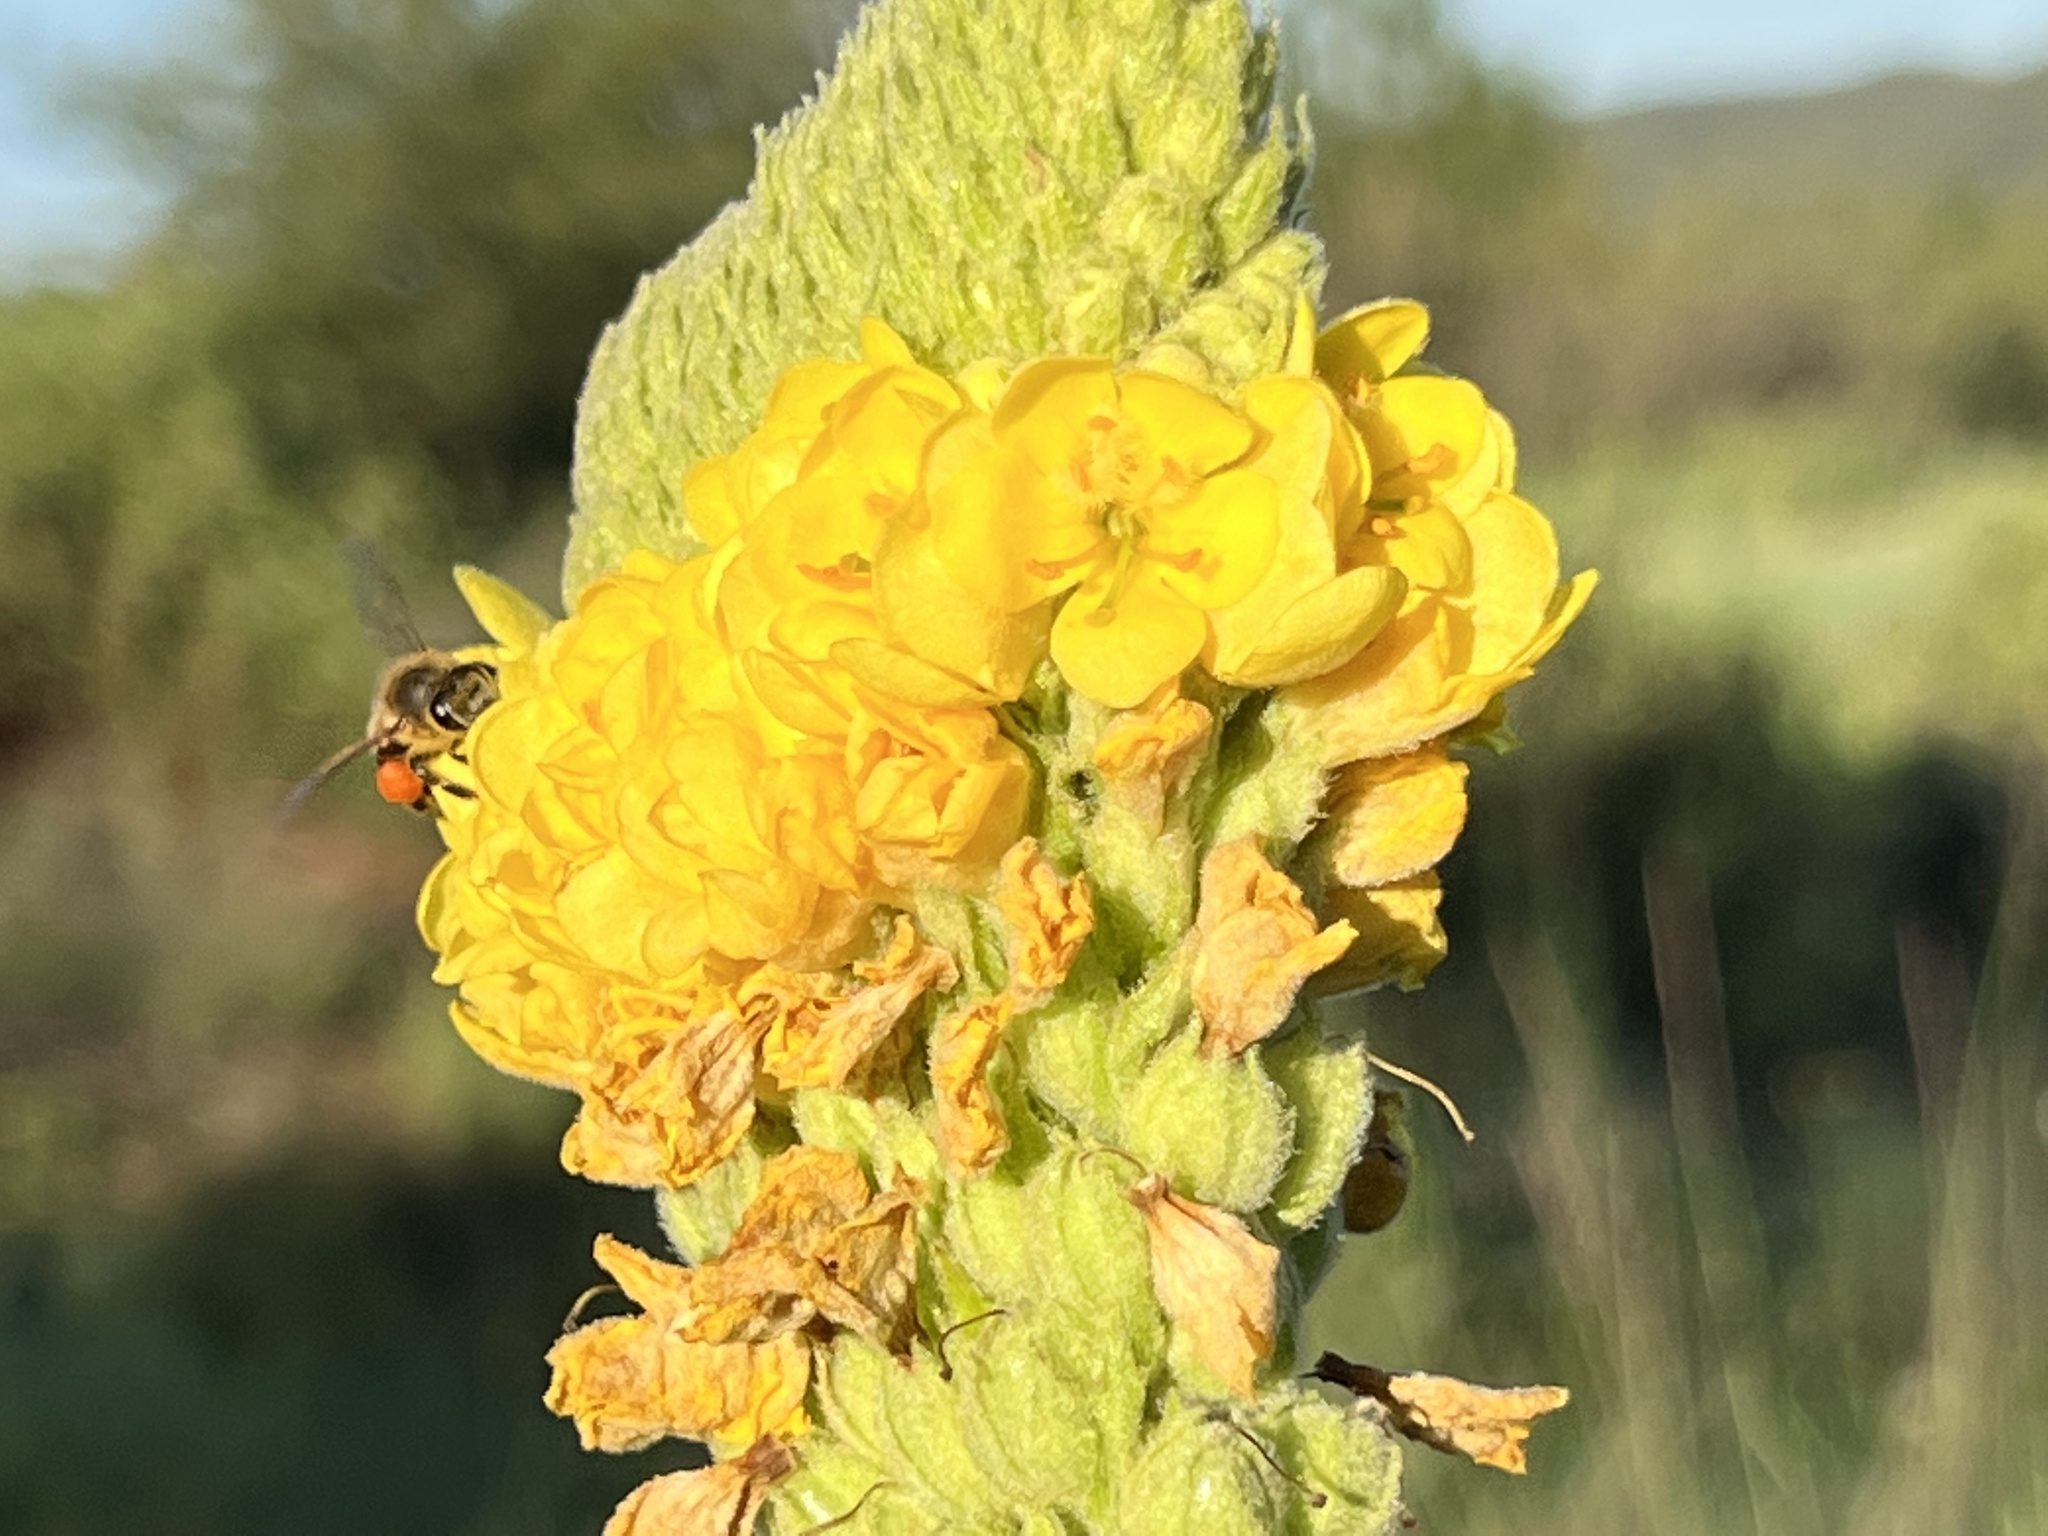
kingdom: Plantae
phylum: Tracheophyta
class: Magnoliopsida
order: Lamiales
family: Scrophulariaceae
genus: Verbascum
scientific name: Verbascum thapsus
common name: Common mullein
